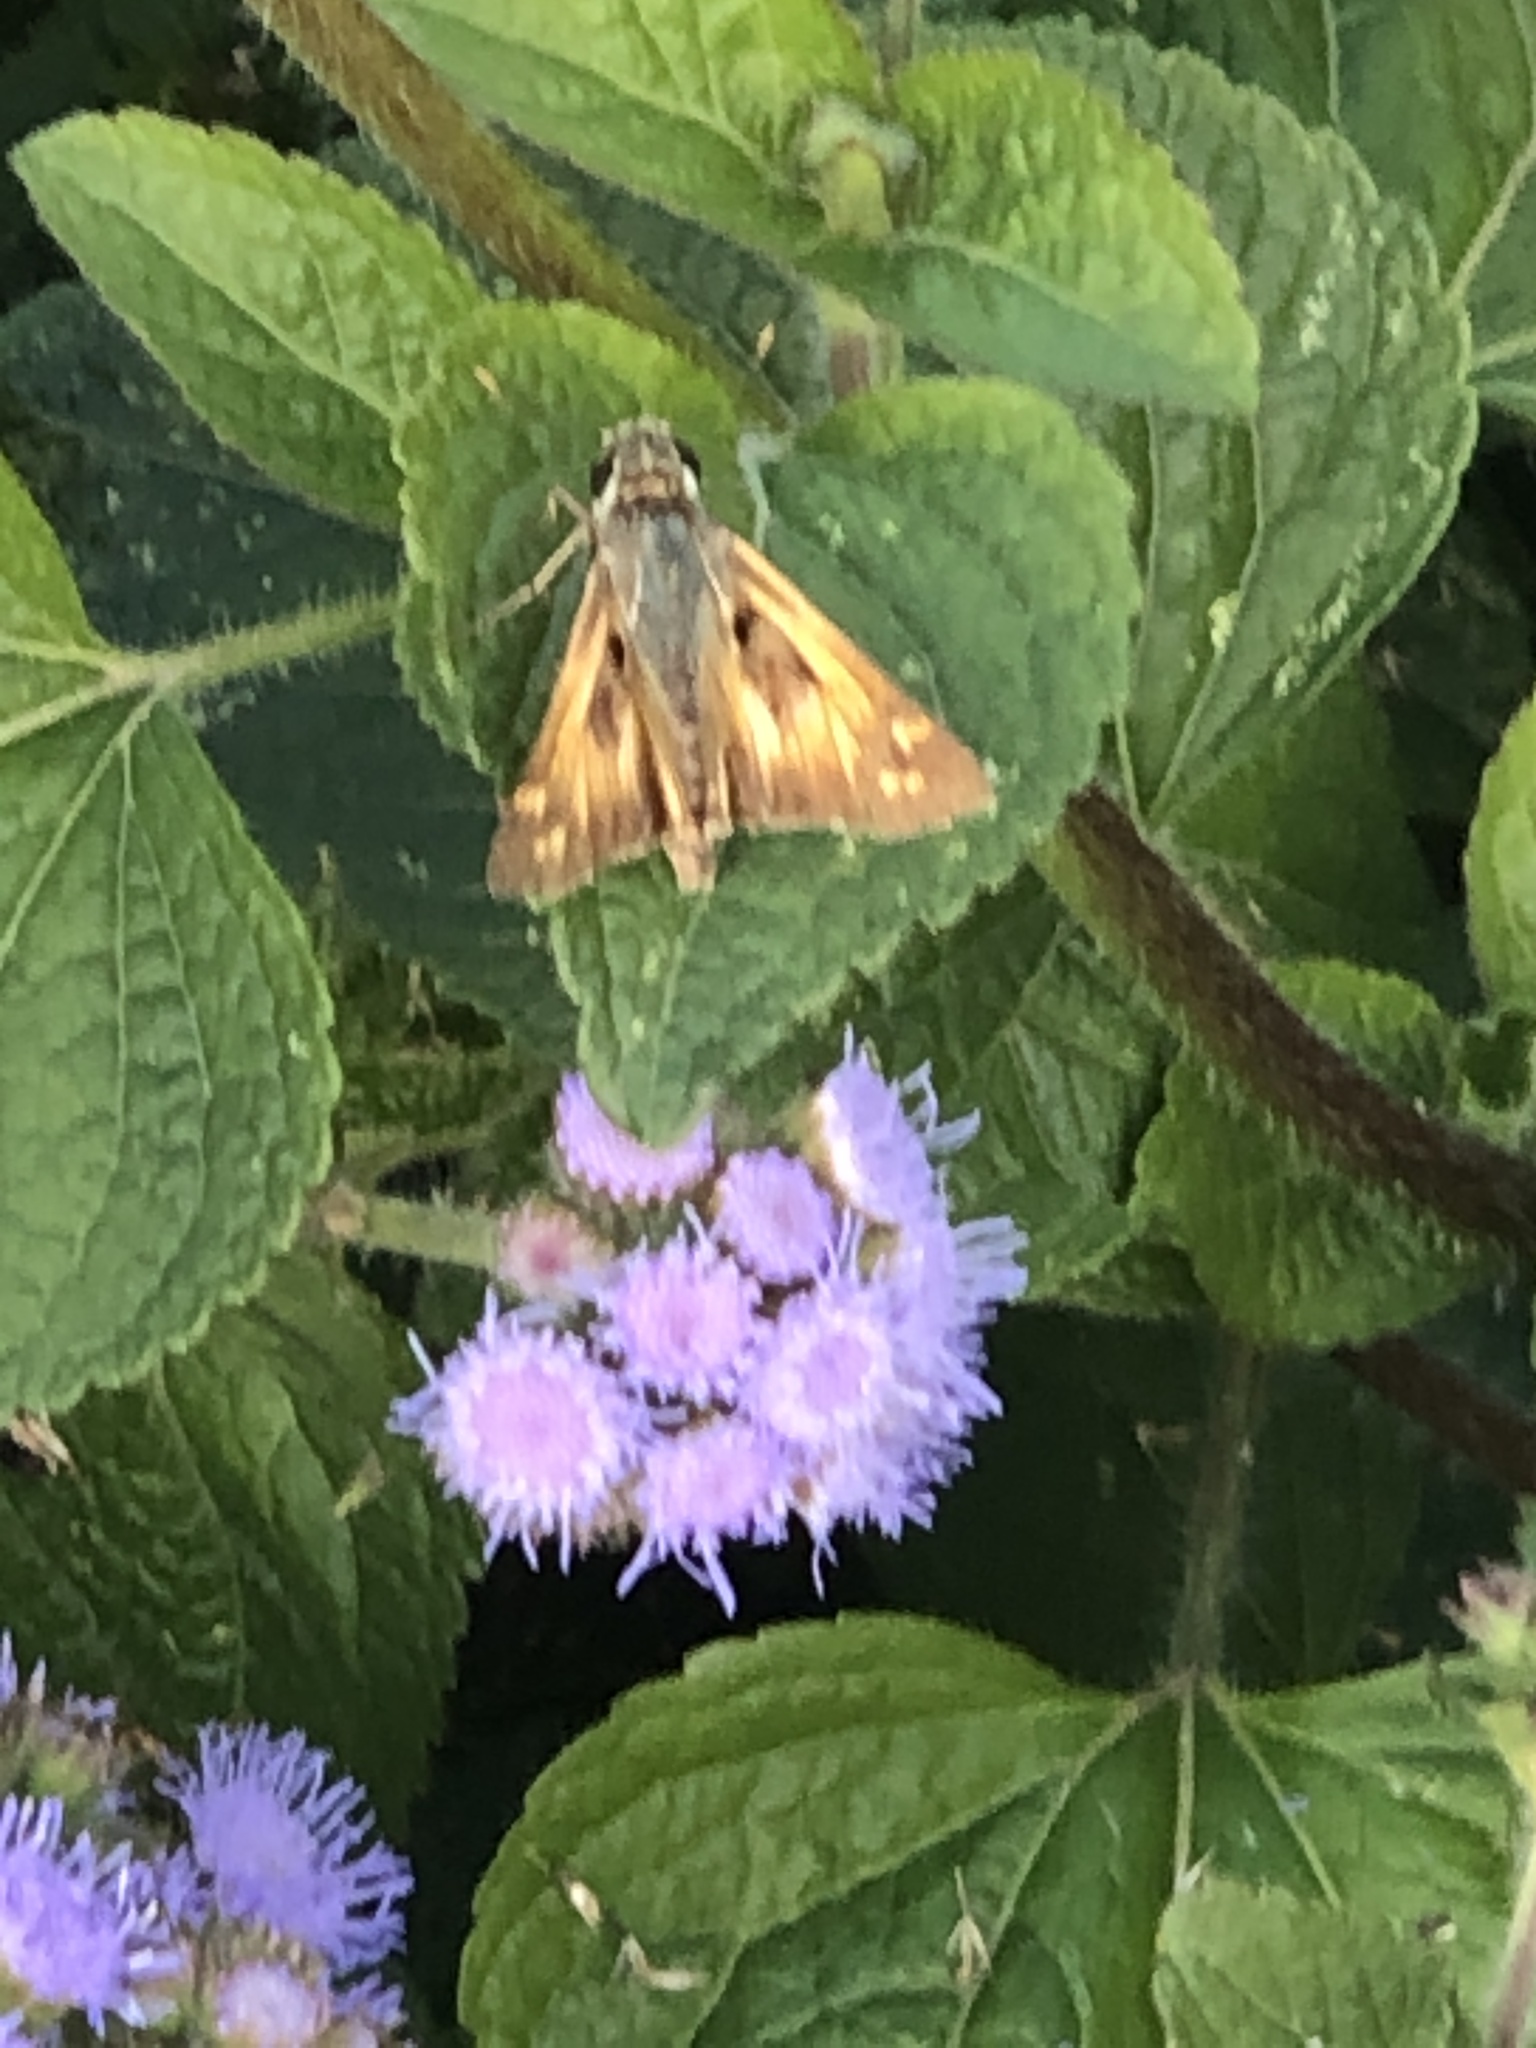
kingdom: Animalia
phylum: Arthropoda
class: Insecta
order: Lepidoptera
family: Hesperiidae
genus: Atalopedes
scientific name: Atalopedes
